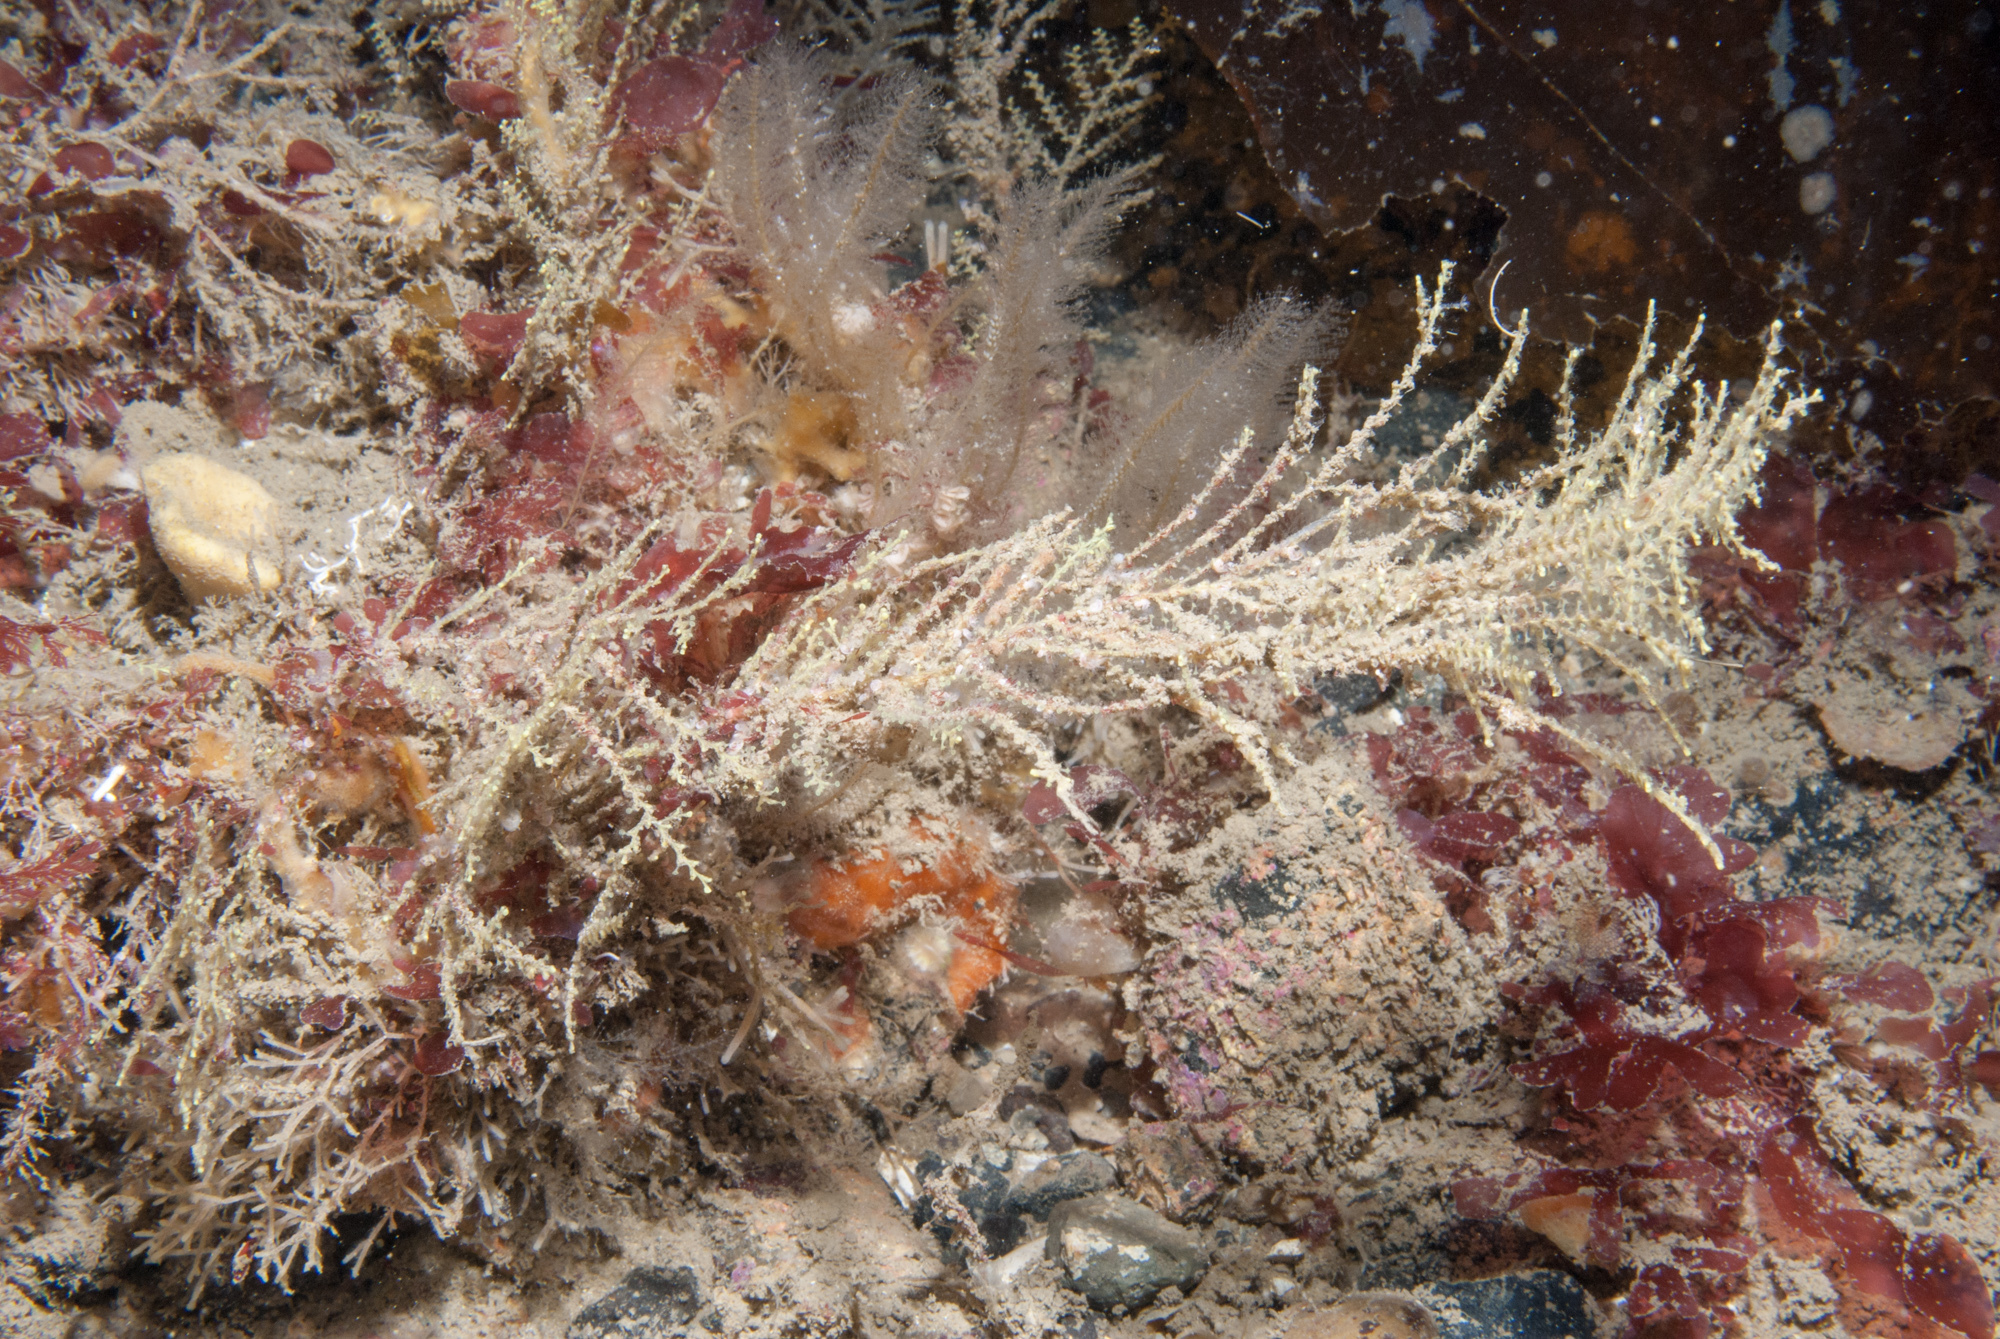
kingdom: Animalia
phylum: Cnidaria
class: Hydrozoa
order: Leptothecata
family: Sertularellidae
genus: Sertularella
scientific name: Sertularella gayi
